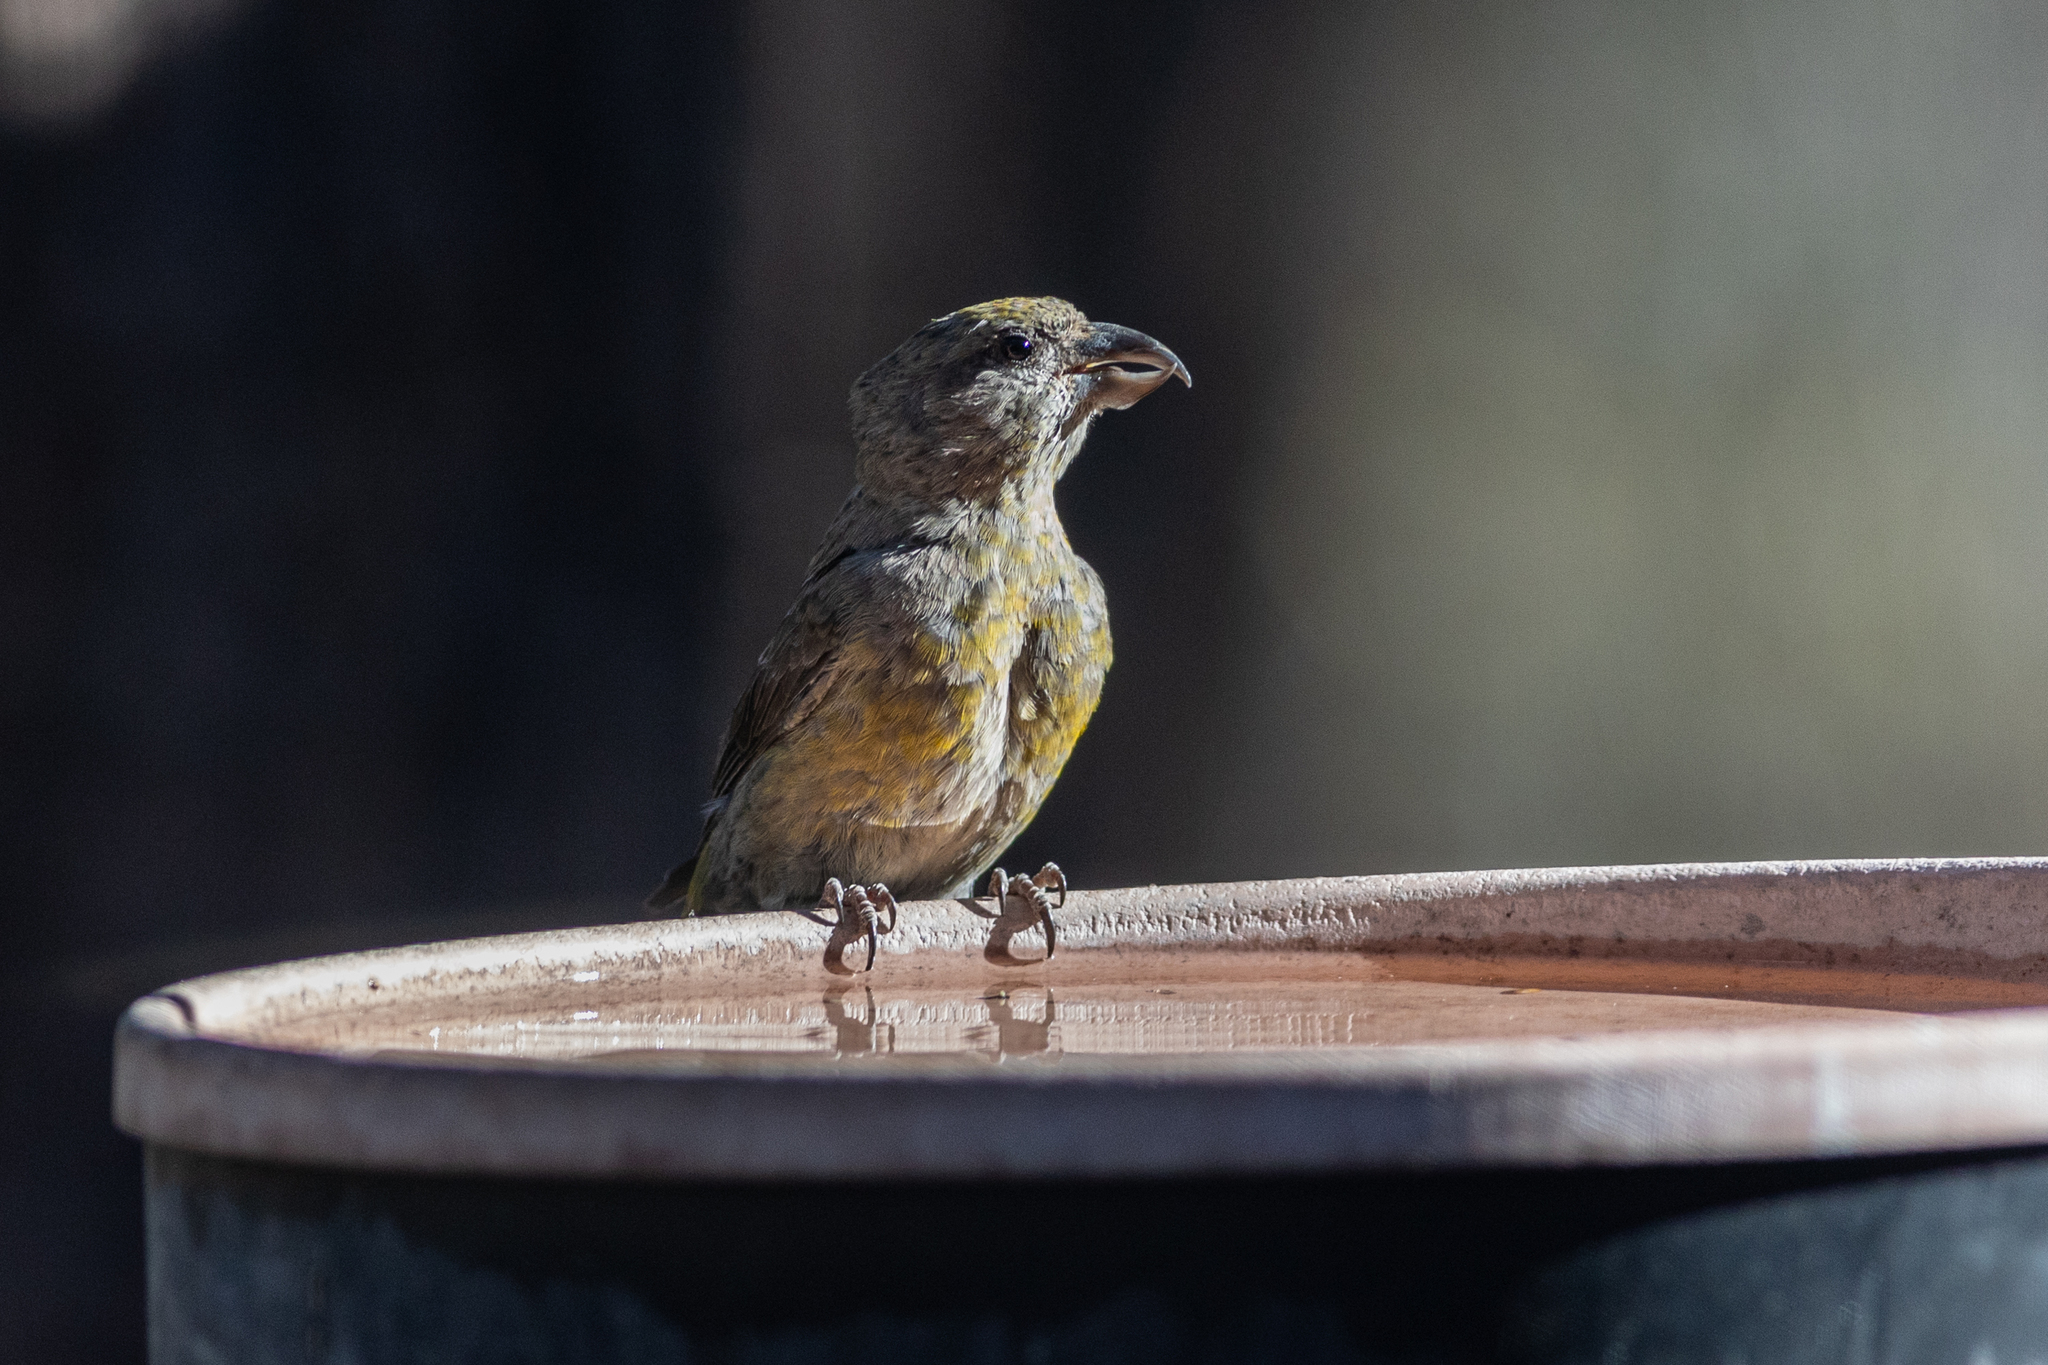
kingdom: Animalia
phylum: Chordata
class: Aves
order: Passeriformes
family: Fringillidae
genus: Loxia
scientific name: Loxia curvirostra
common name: Red crossbill
